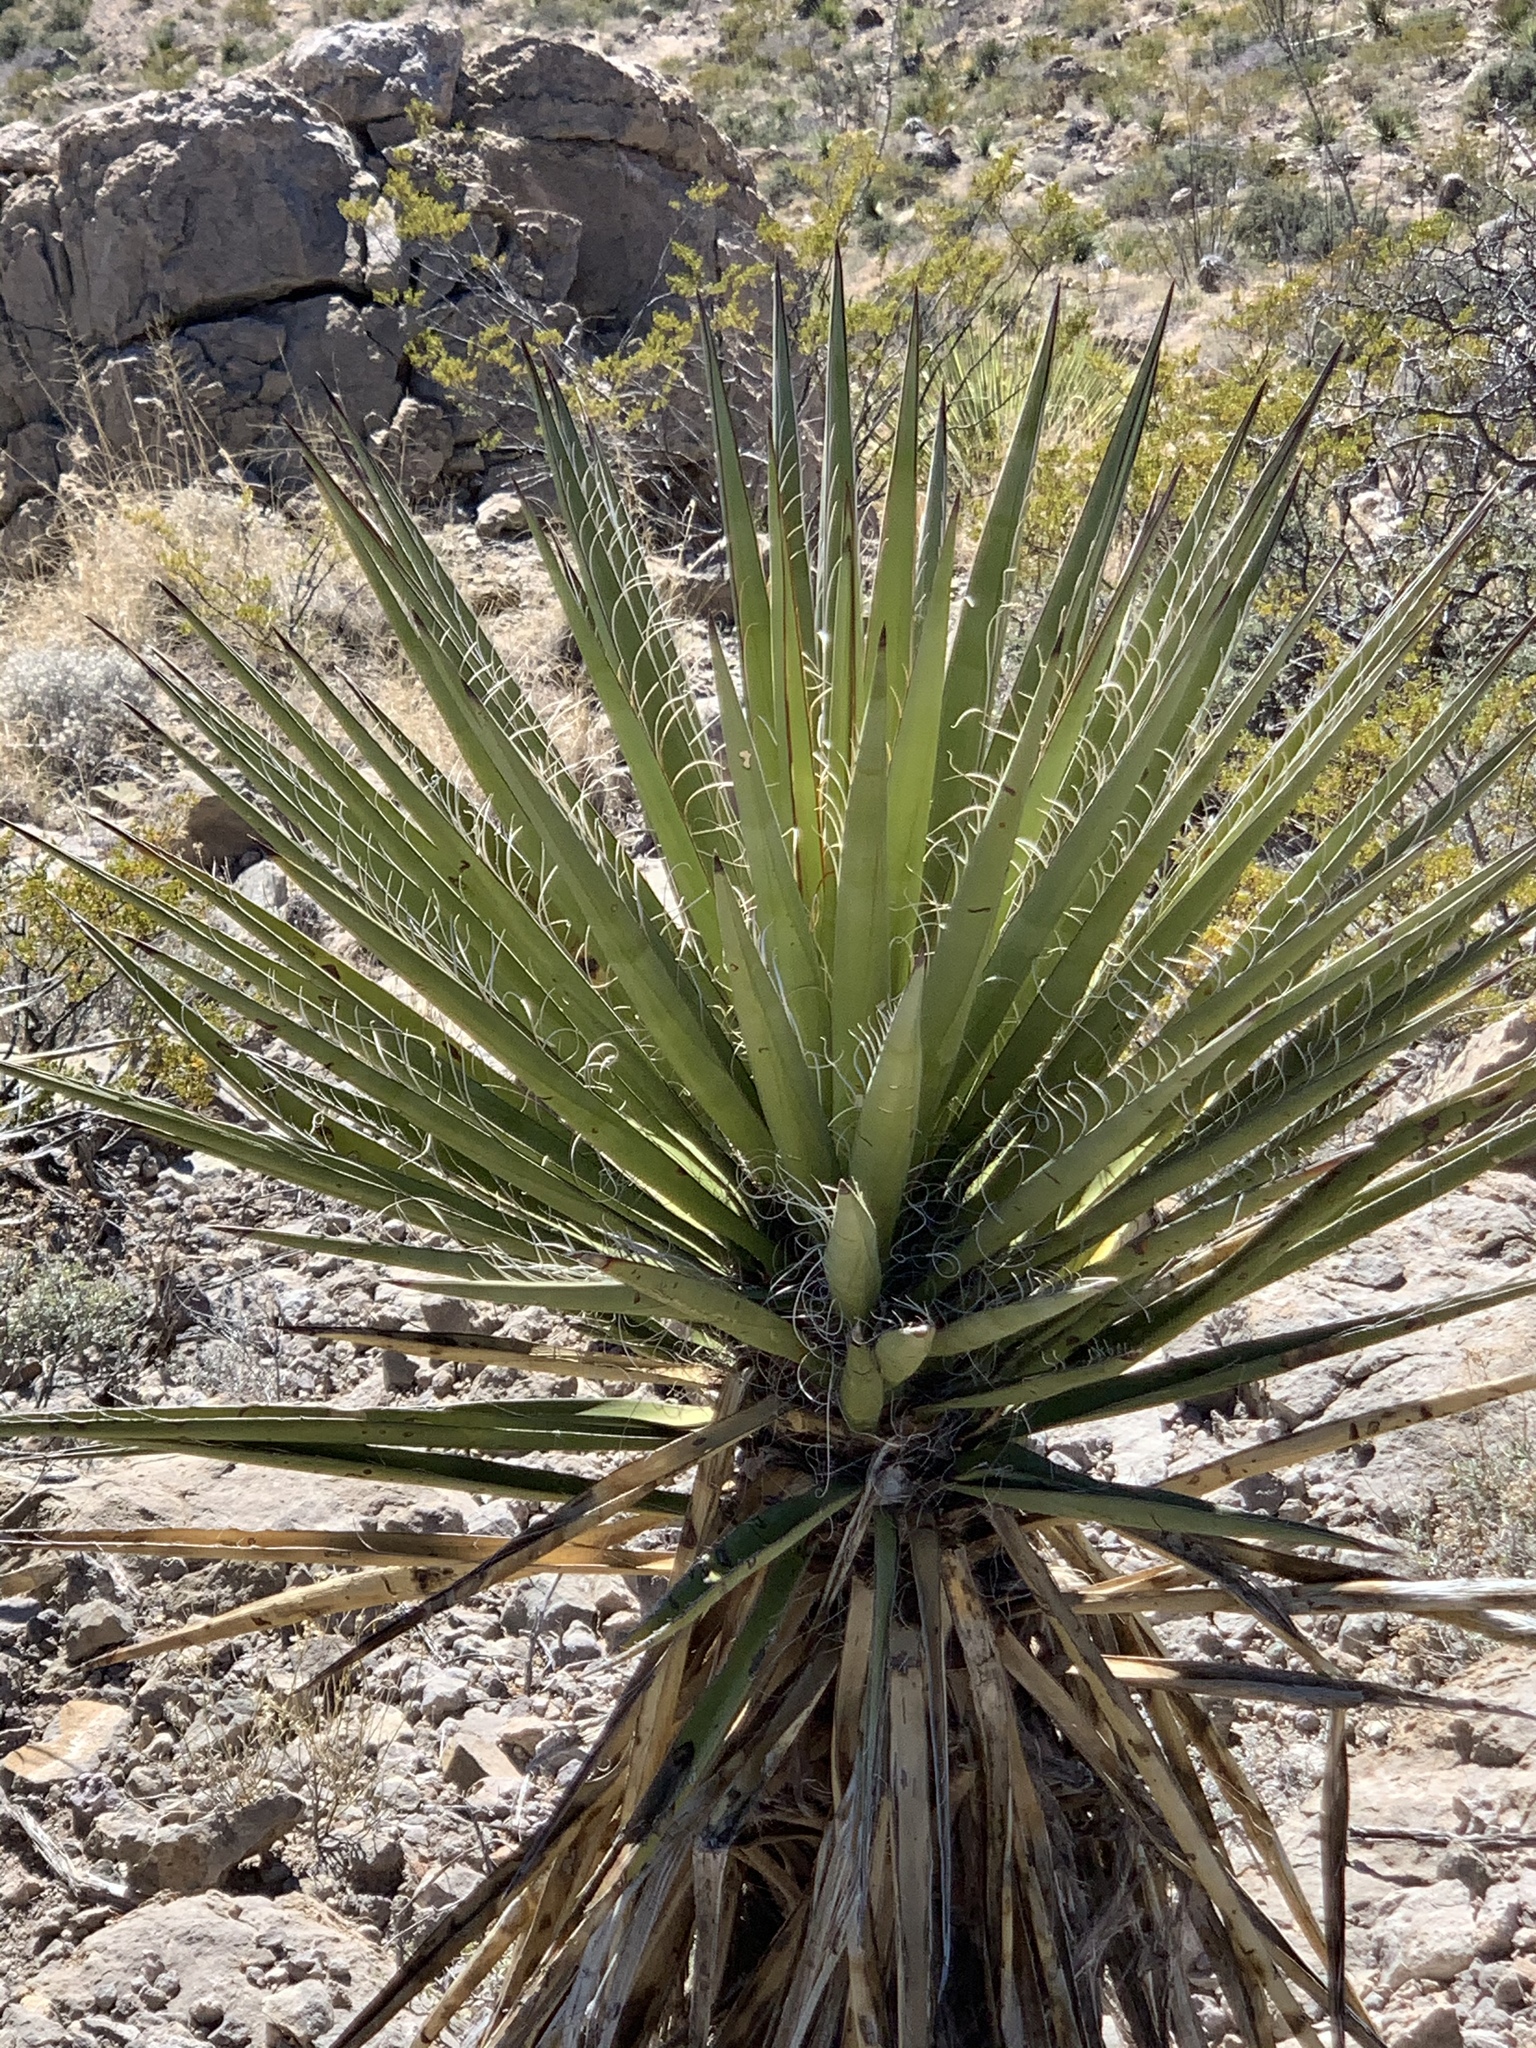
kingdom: Plantae
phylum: Tracheophyta
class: Liliopsida
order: Asparagales
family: Asparagaceae
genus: Yucca
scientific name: Yucca treculiana
